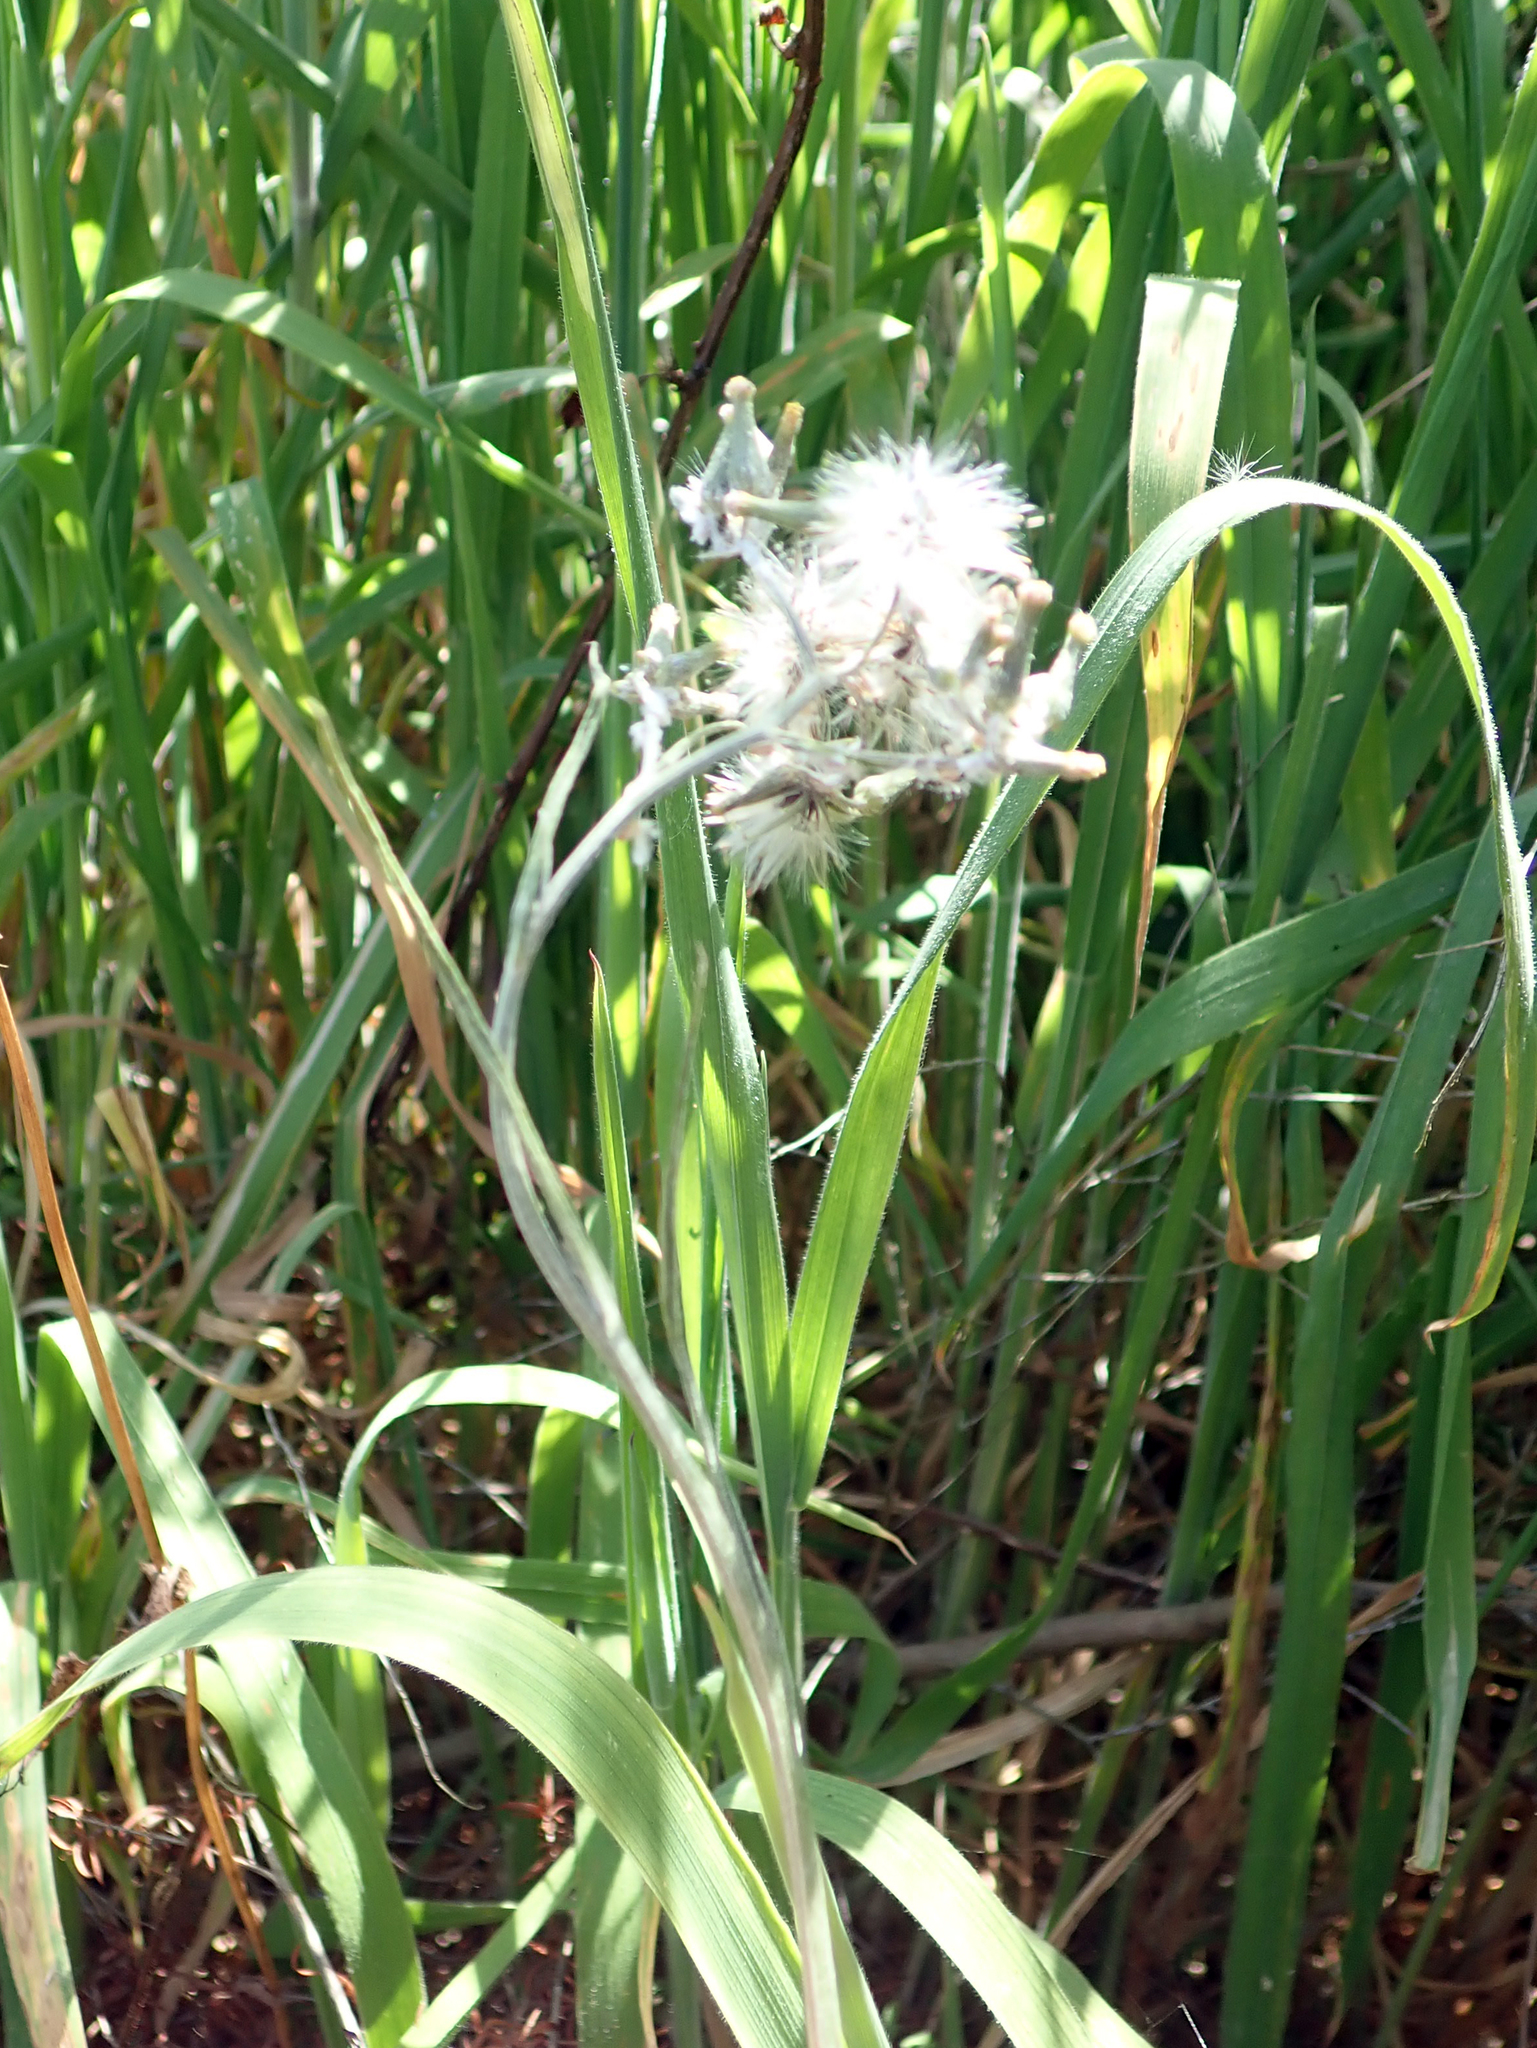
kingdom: Plantae
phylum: Tracheophyta
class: Magnoliopsida
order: Asterales
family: Asteraceae
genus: Senecio
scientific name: Senecio quadridentatus
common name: Cotton fireweed
